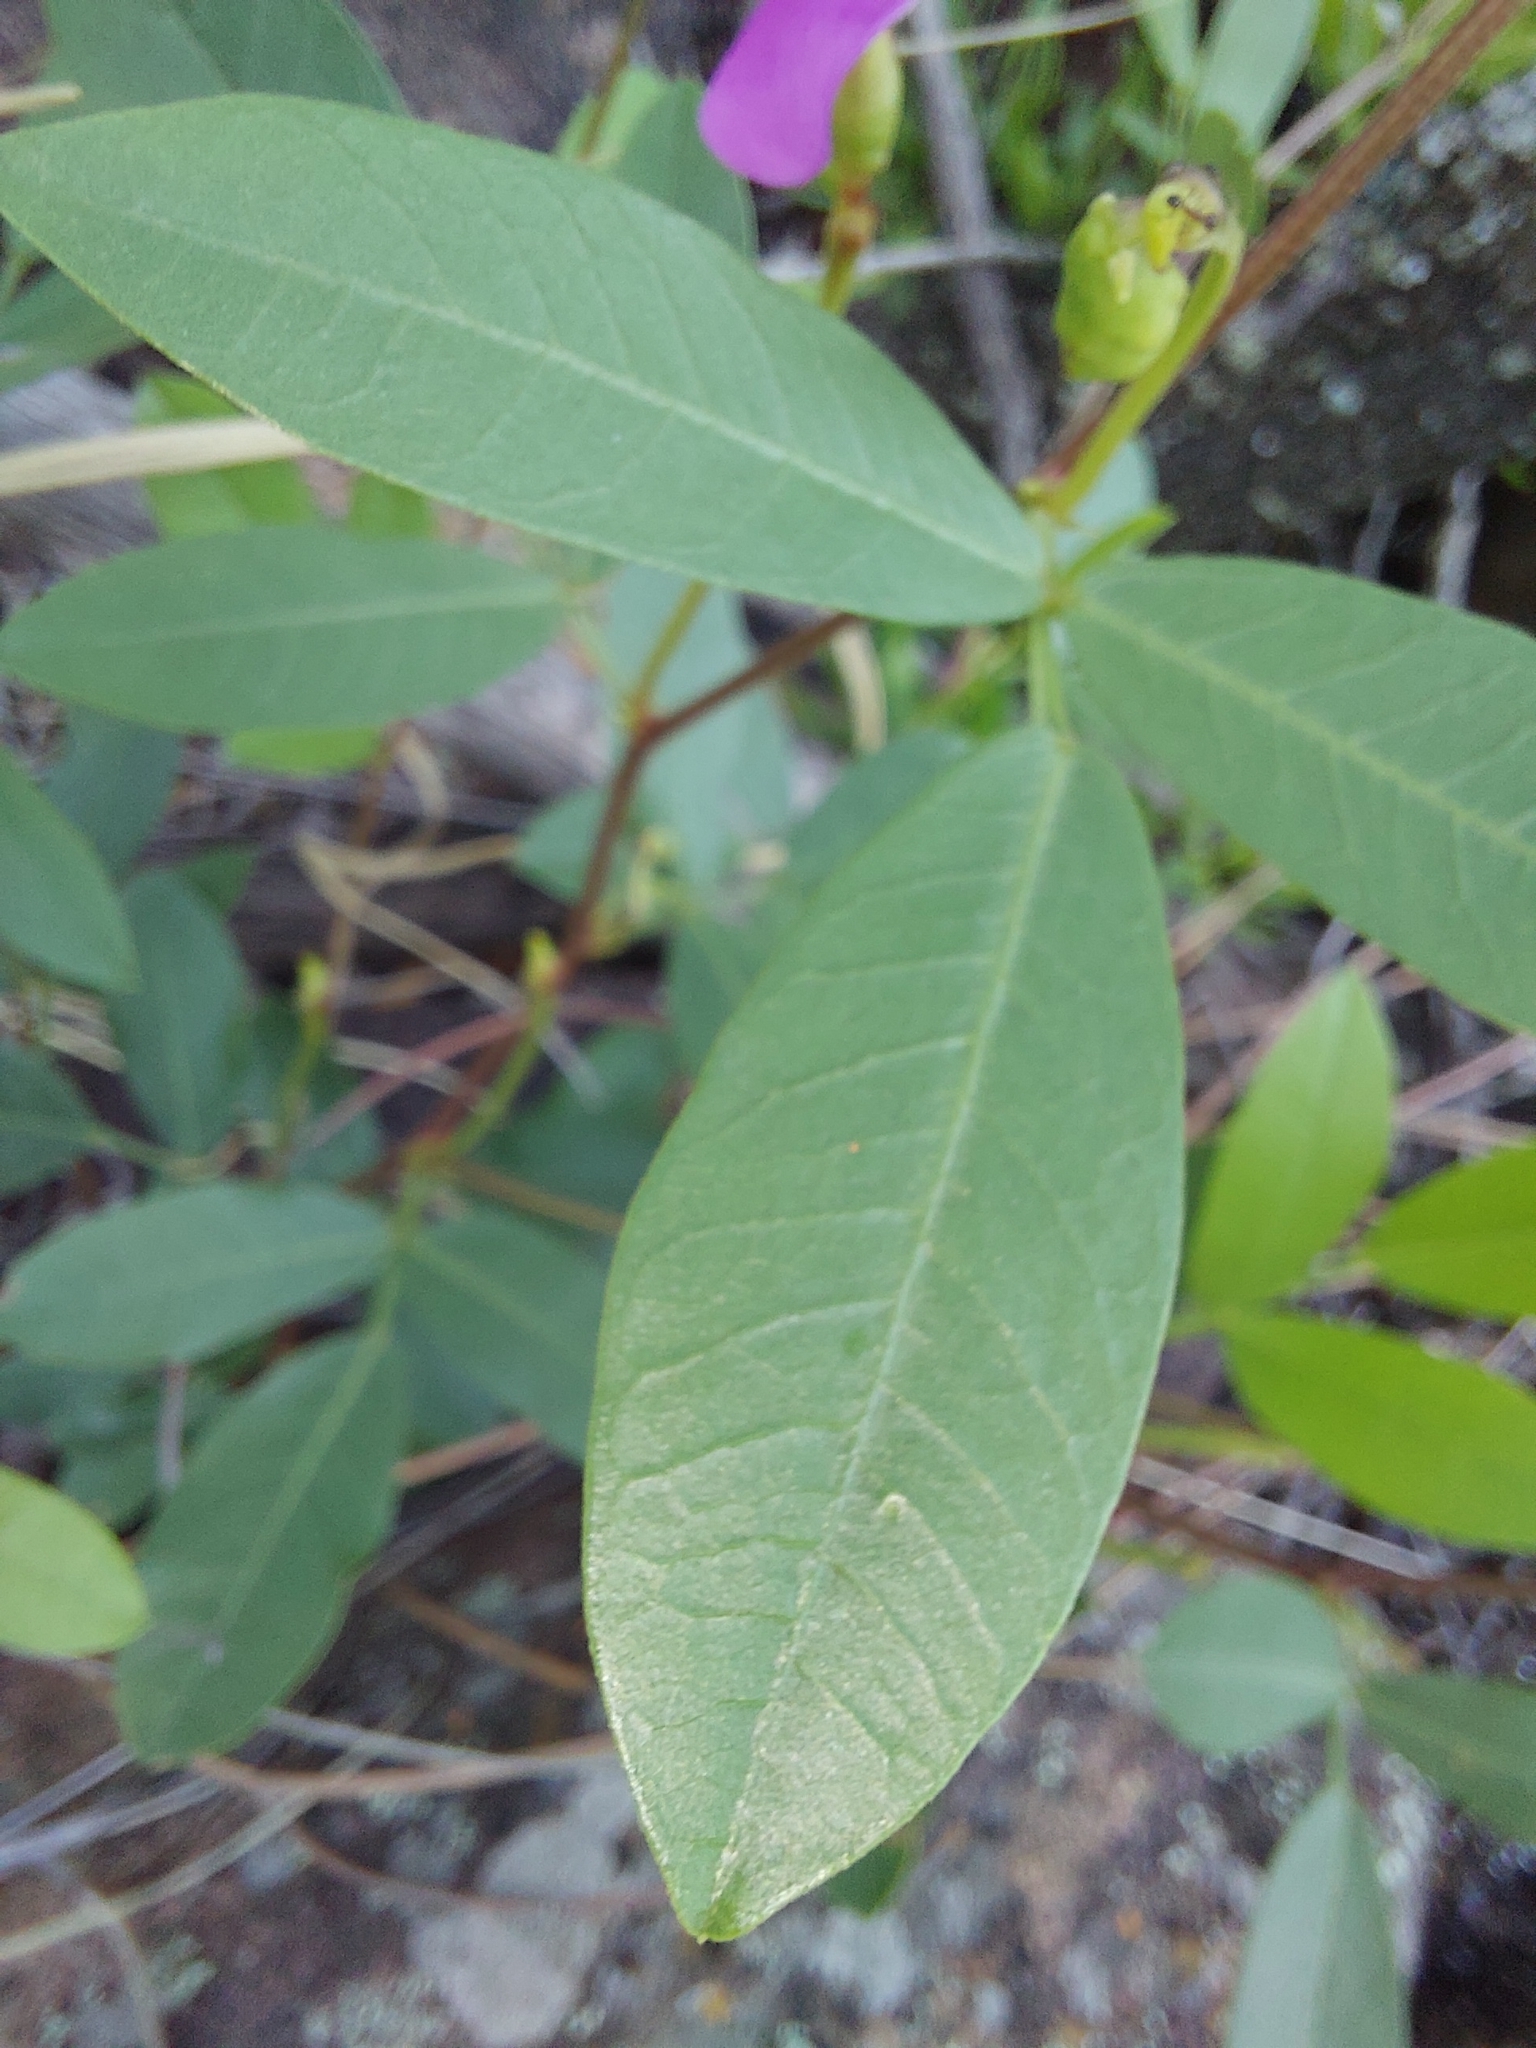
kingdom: Plantae
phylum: Tracheophyta
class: Magnoliopsida
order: Fabales
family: Fabaceae
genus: Sphenostylis
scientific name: Sphenostylis angustifolia
